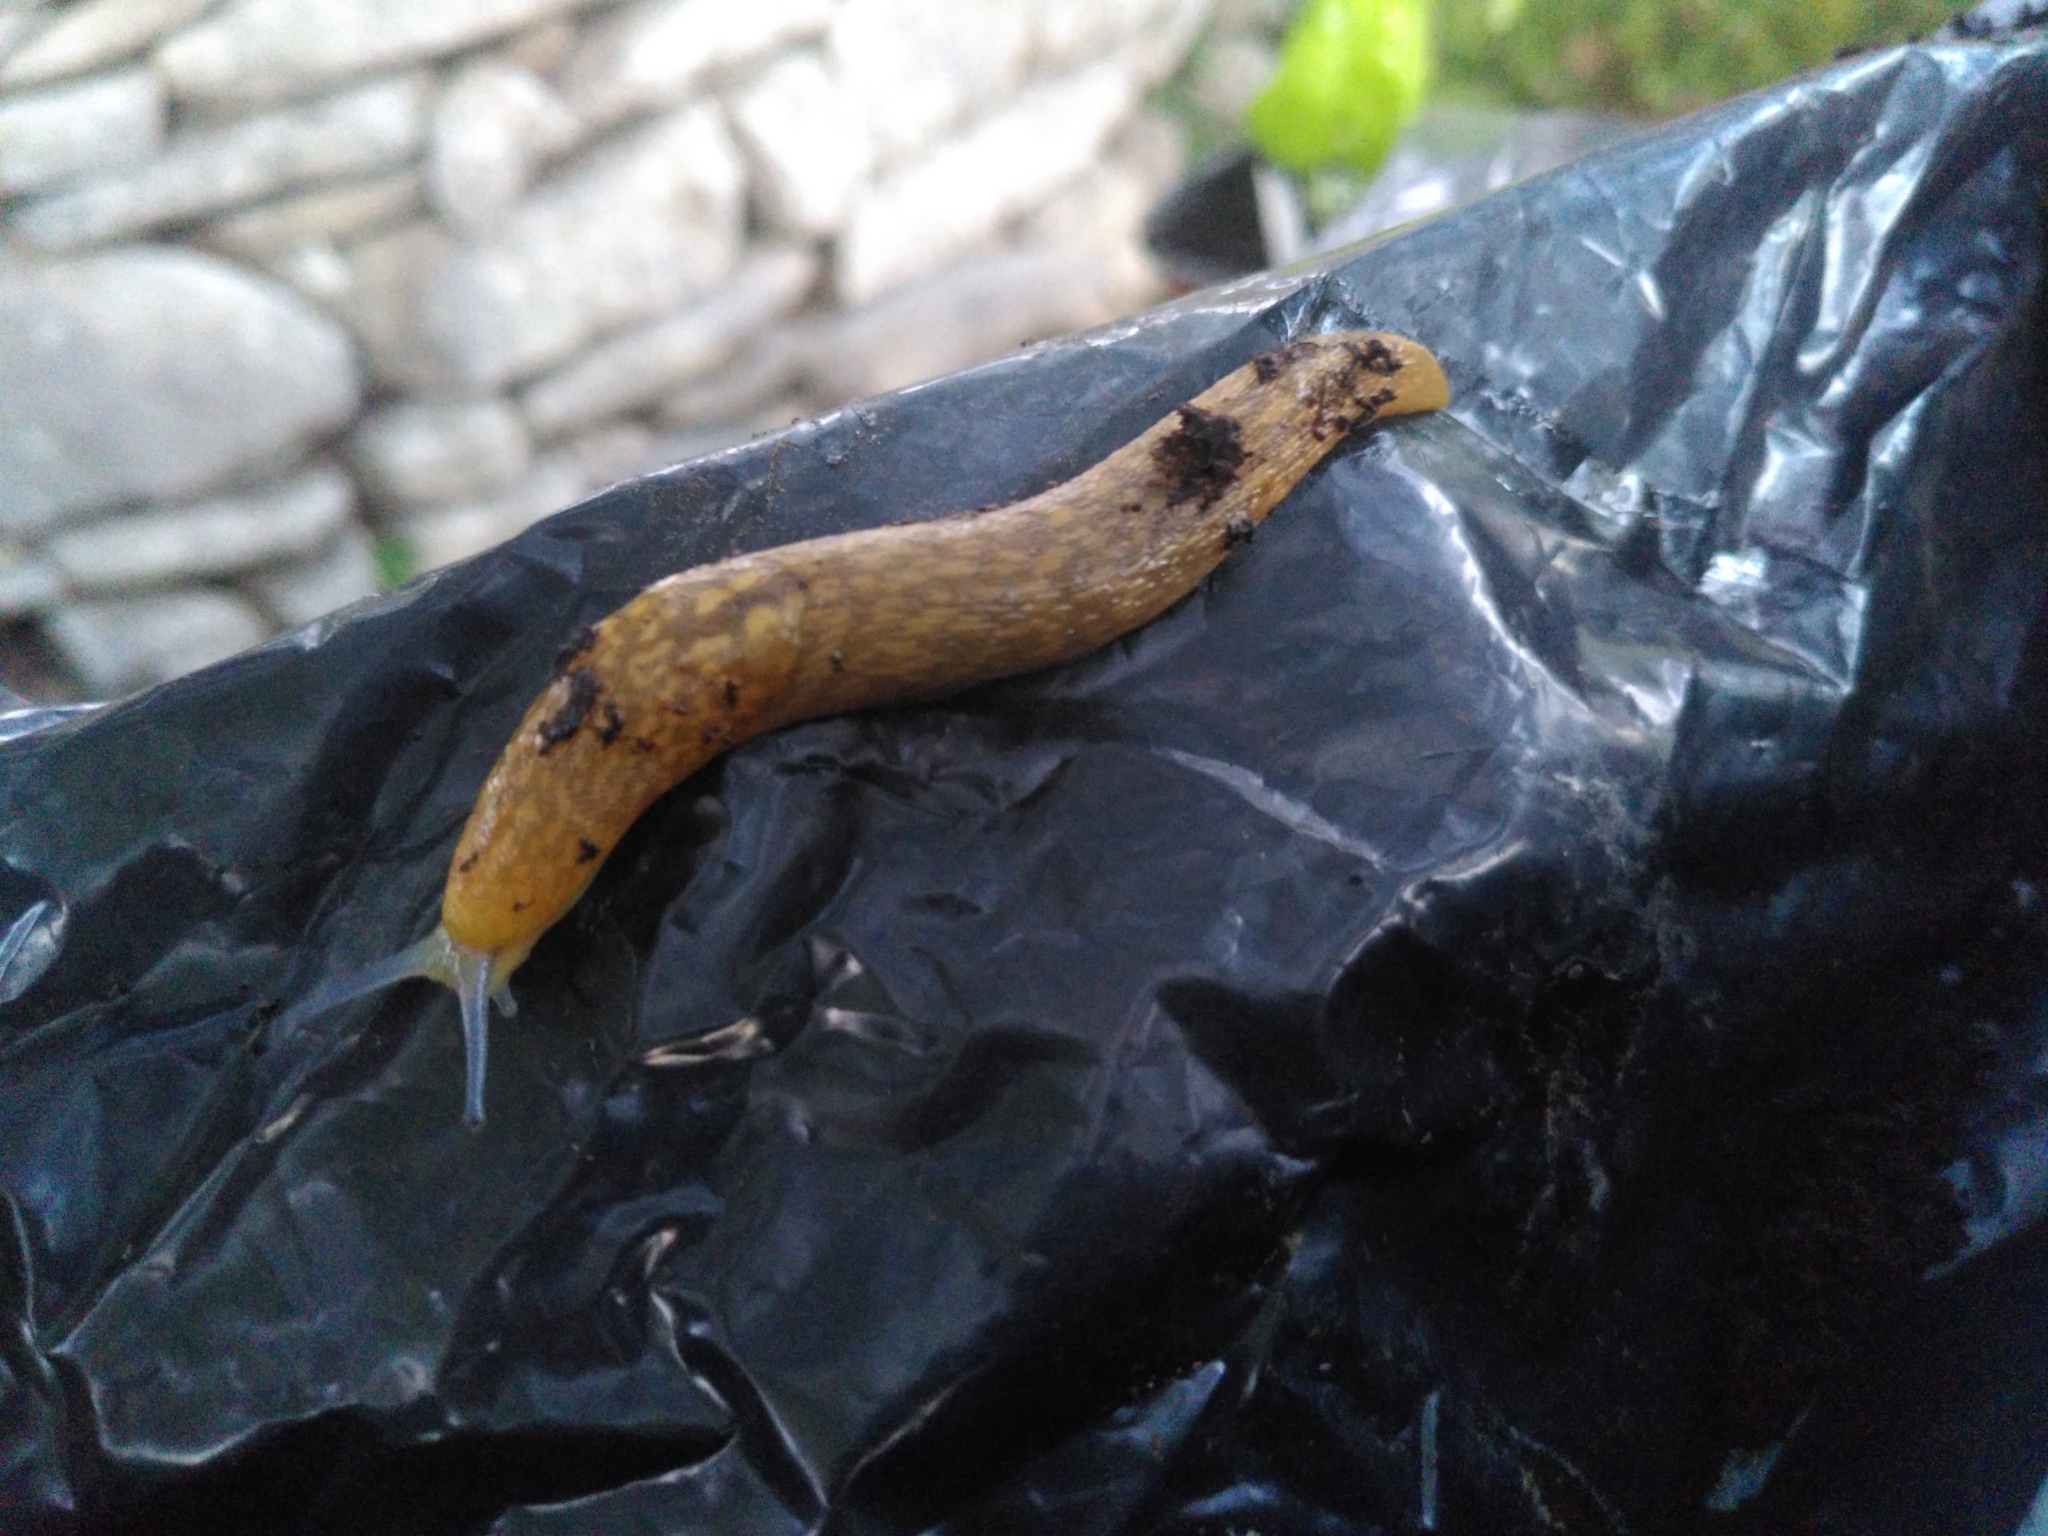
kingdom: Animalia
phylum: Mollusca
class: Gastropoda
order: Stylommatophora
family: Limacidae
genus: Limacus
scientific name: Limacus flavus
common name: Yellow gardenslug
